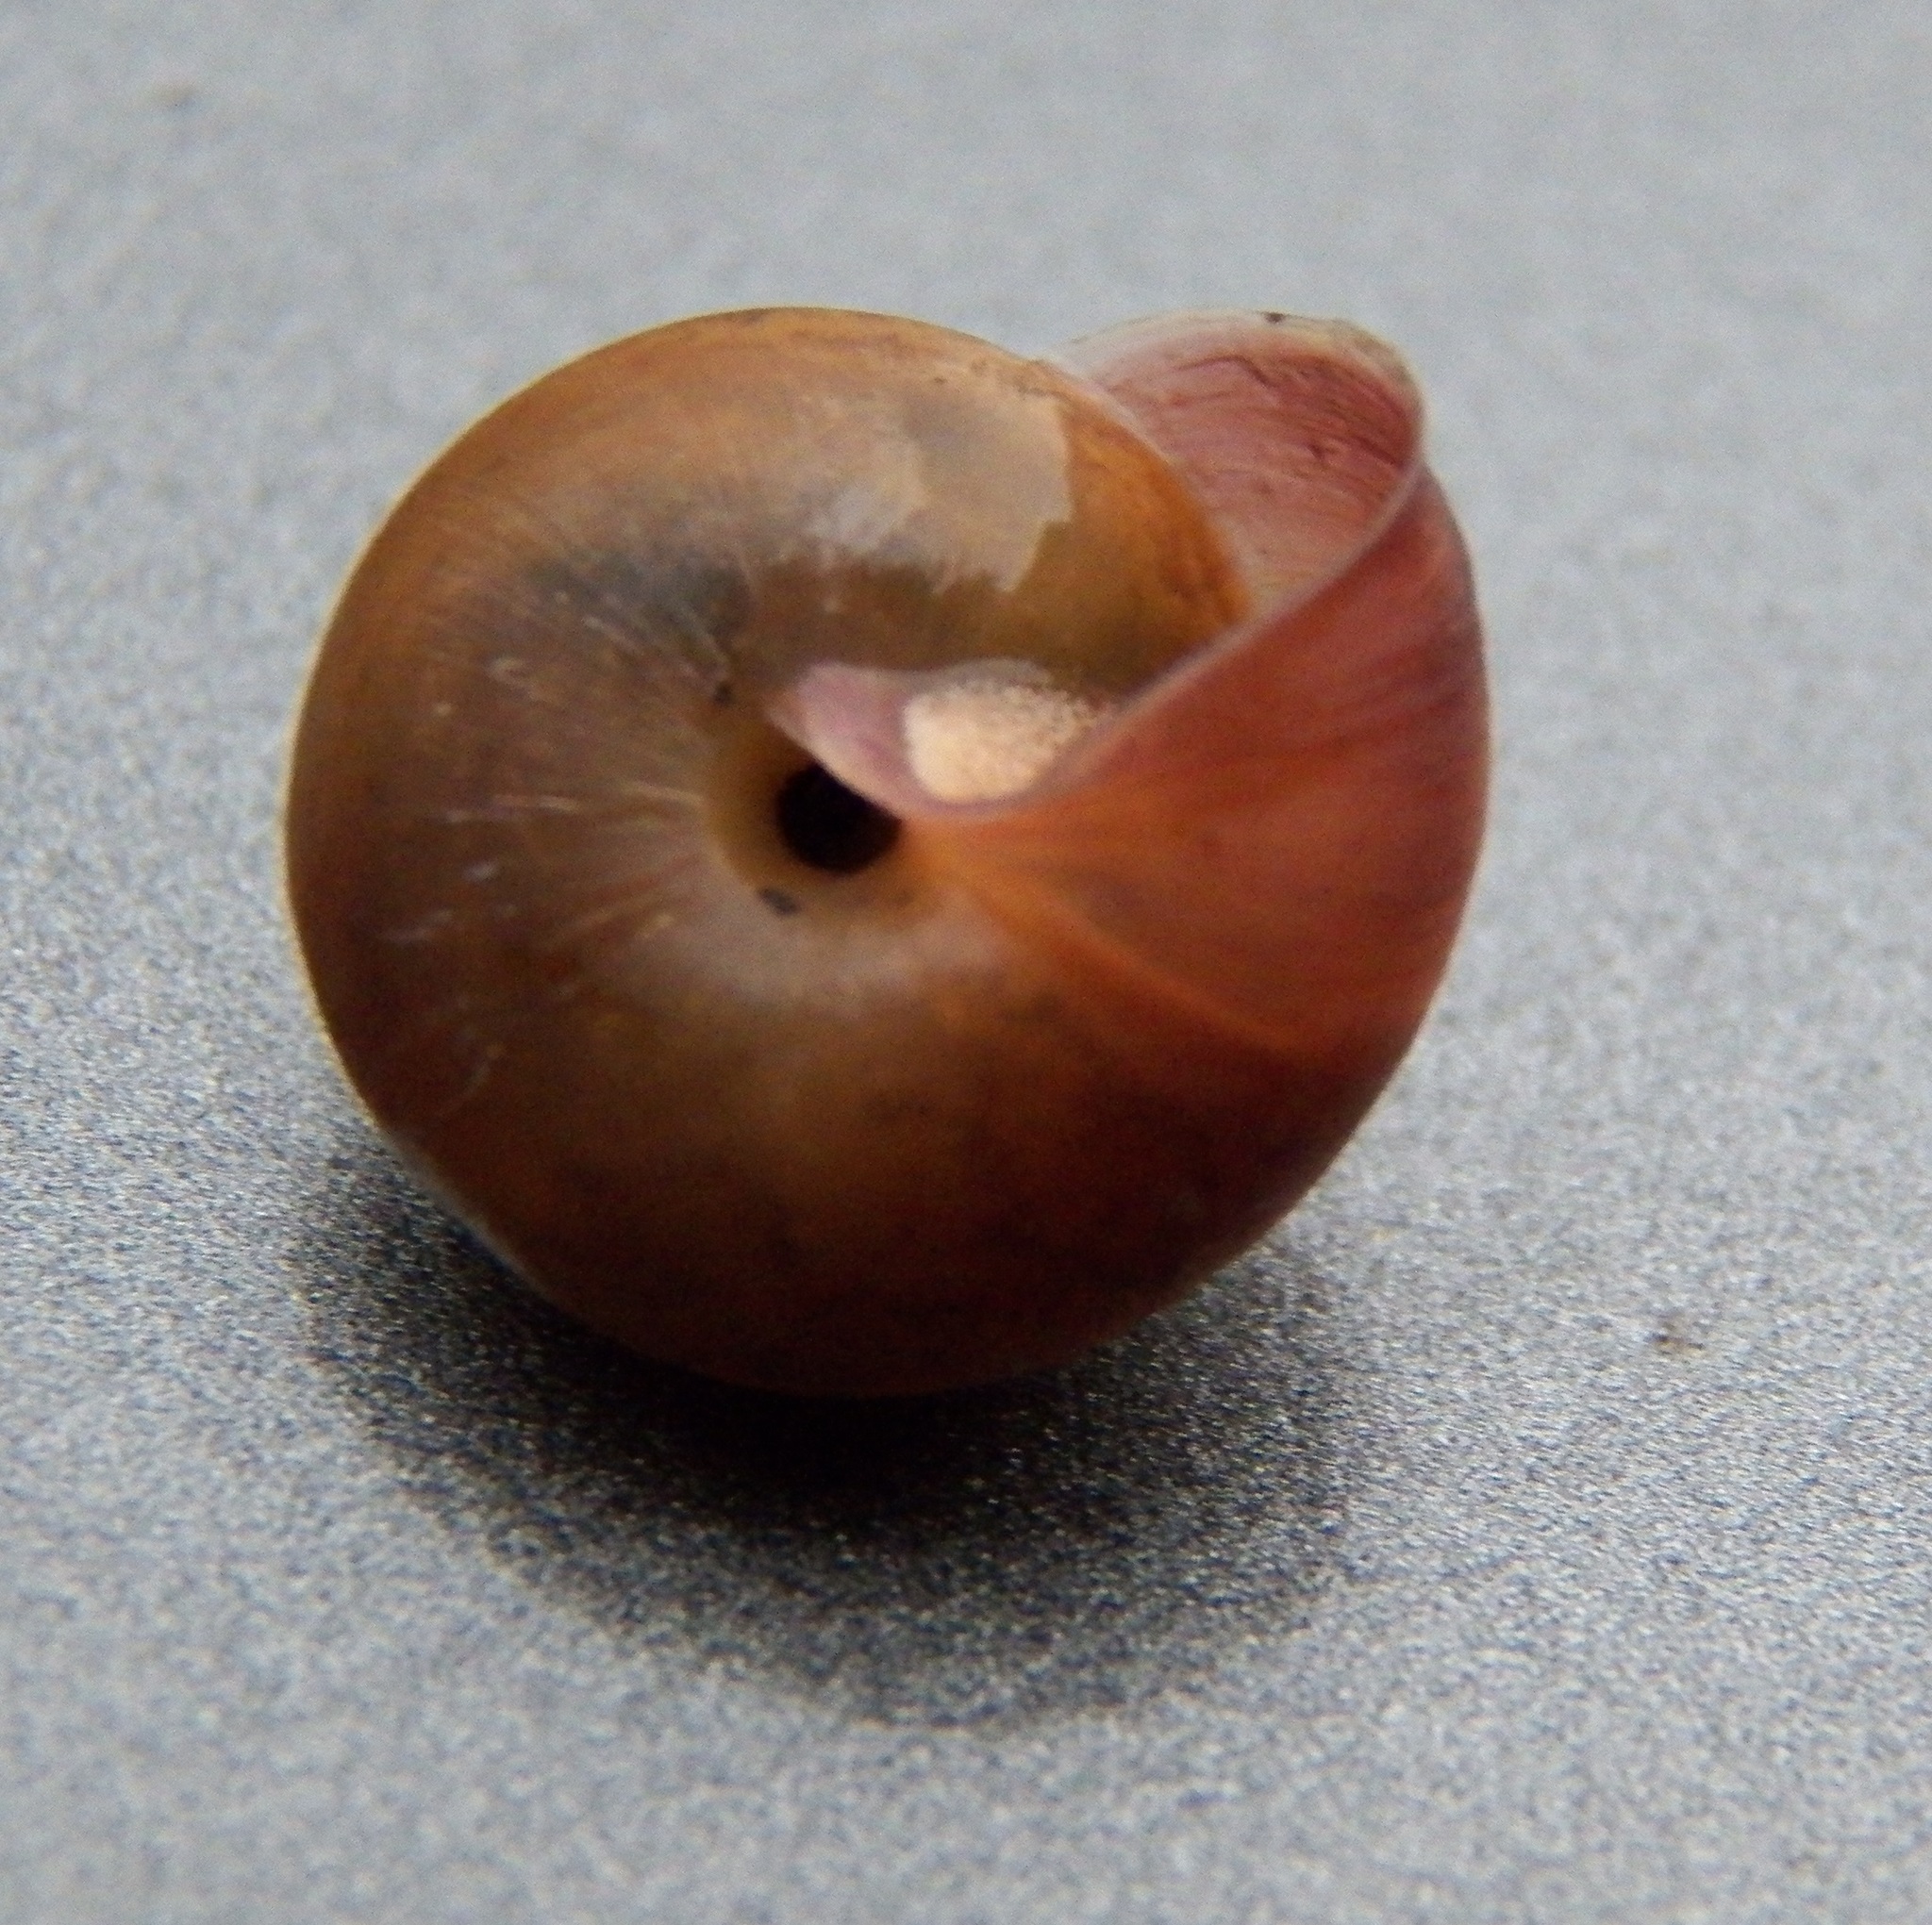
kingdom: Animalia
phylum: Mollusca
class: Gastropoda
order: Stylommatophora
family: Camaenidae
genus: Bradybaena
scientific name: Bradybaena similaris
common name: Asian trampsnail
